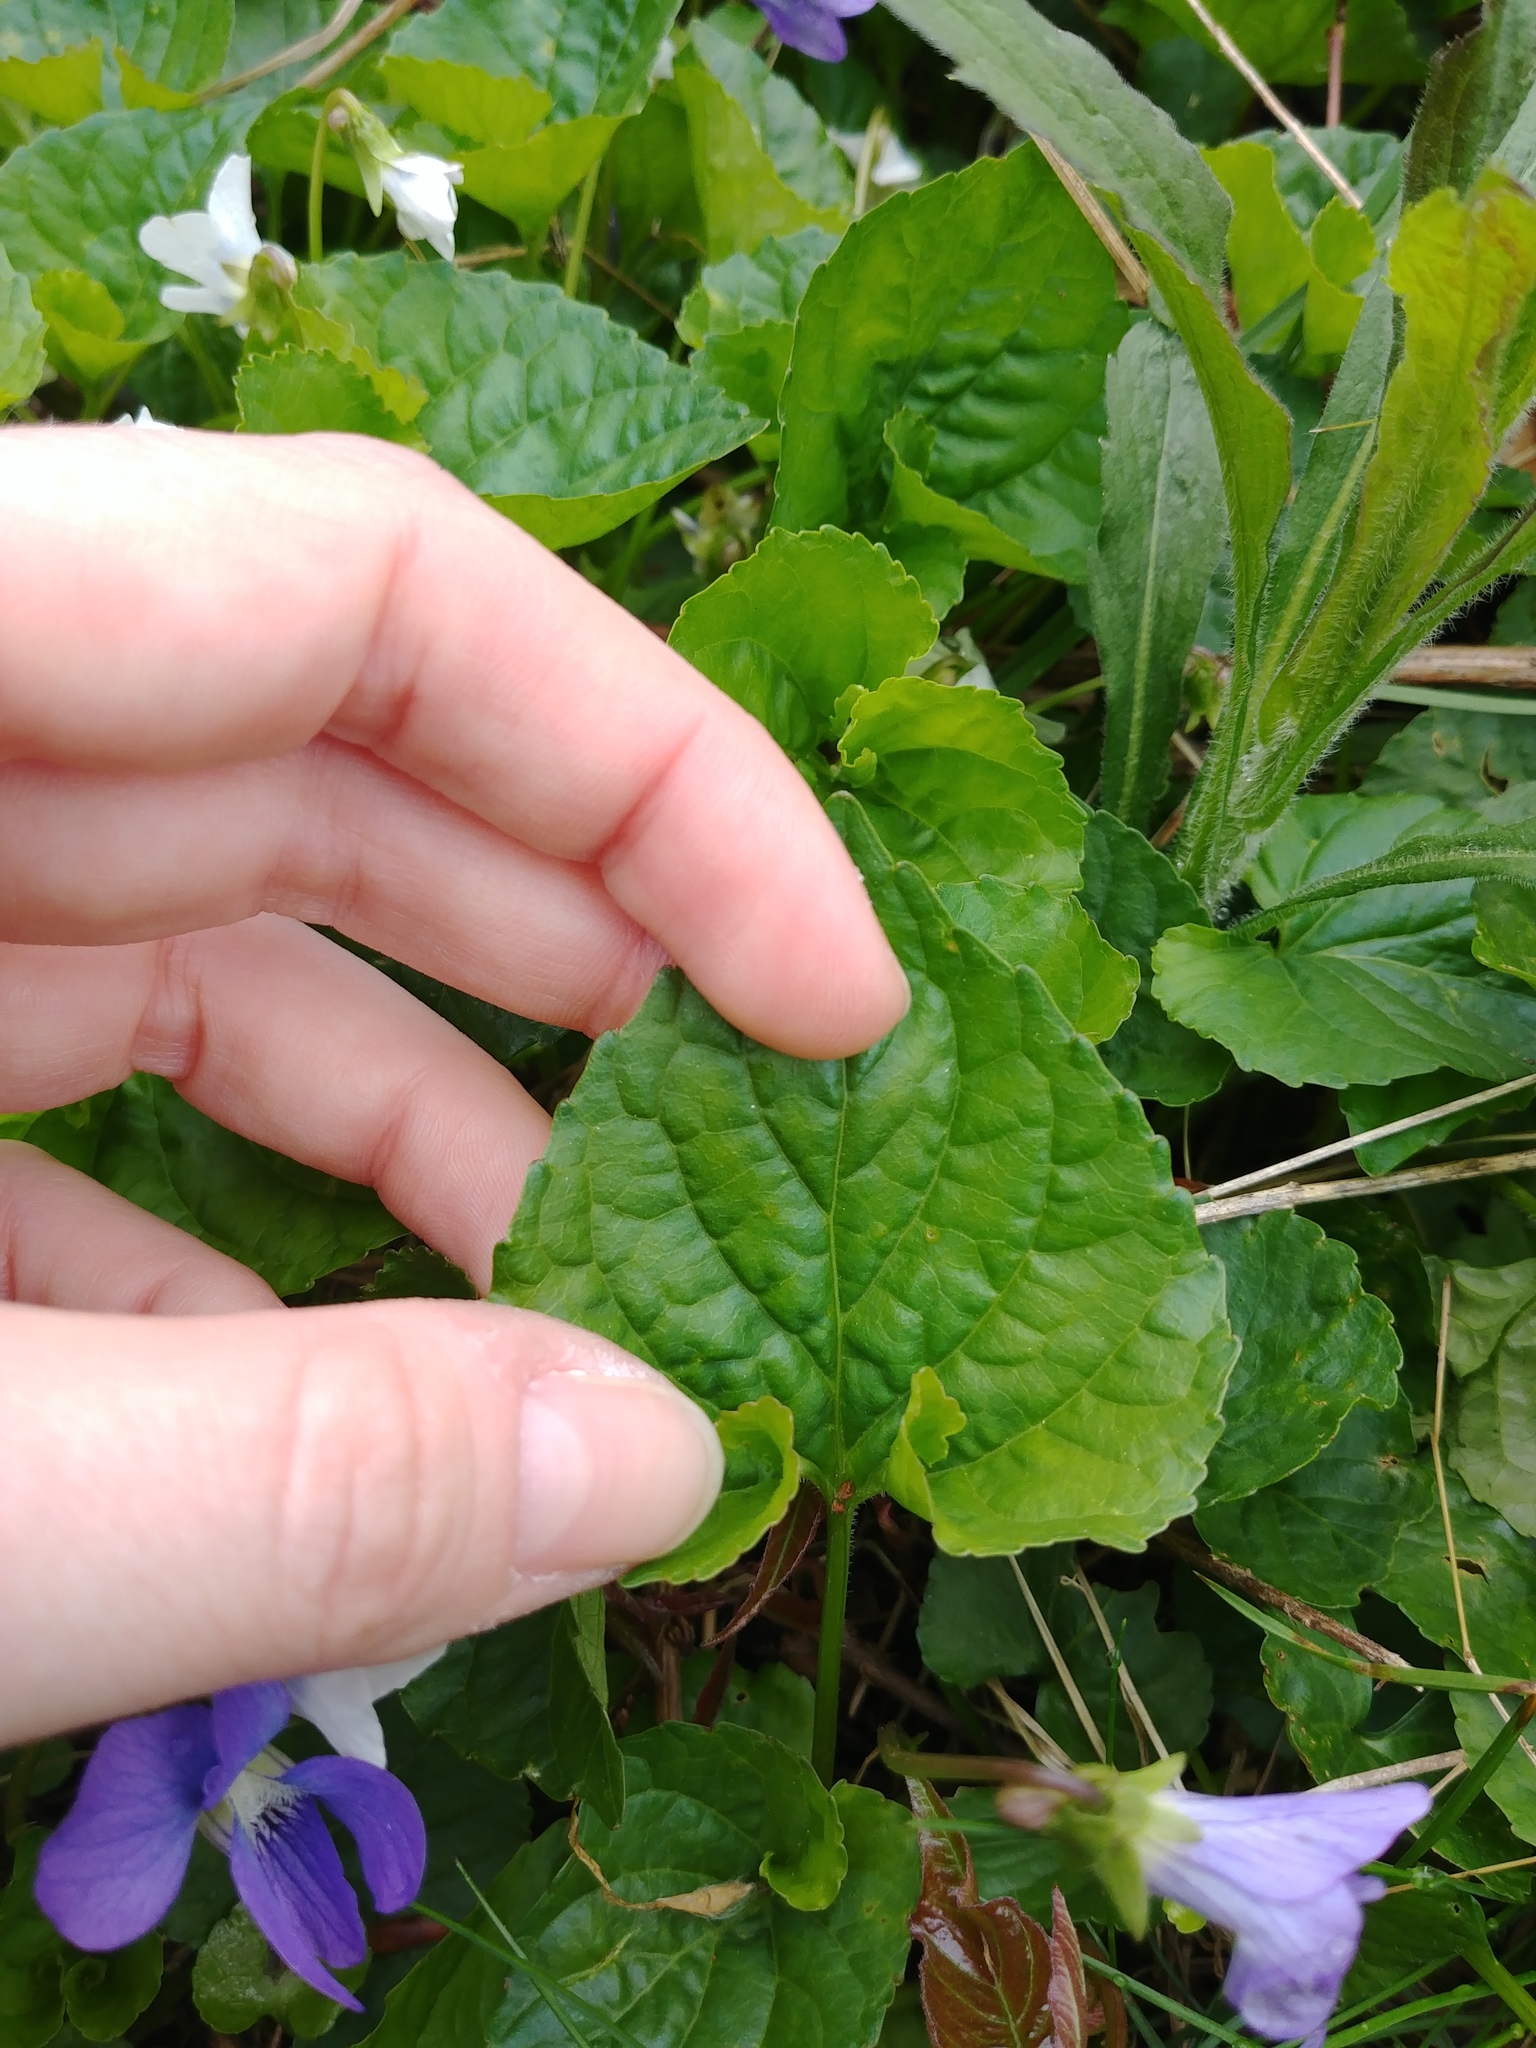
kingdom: Plantae
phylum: Tracheophyta
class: Magnoliopsida
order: Malpighiales
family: Violaceae
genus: Viola
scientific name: Viola sororia
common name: Dooryard violet
